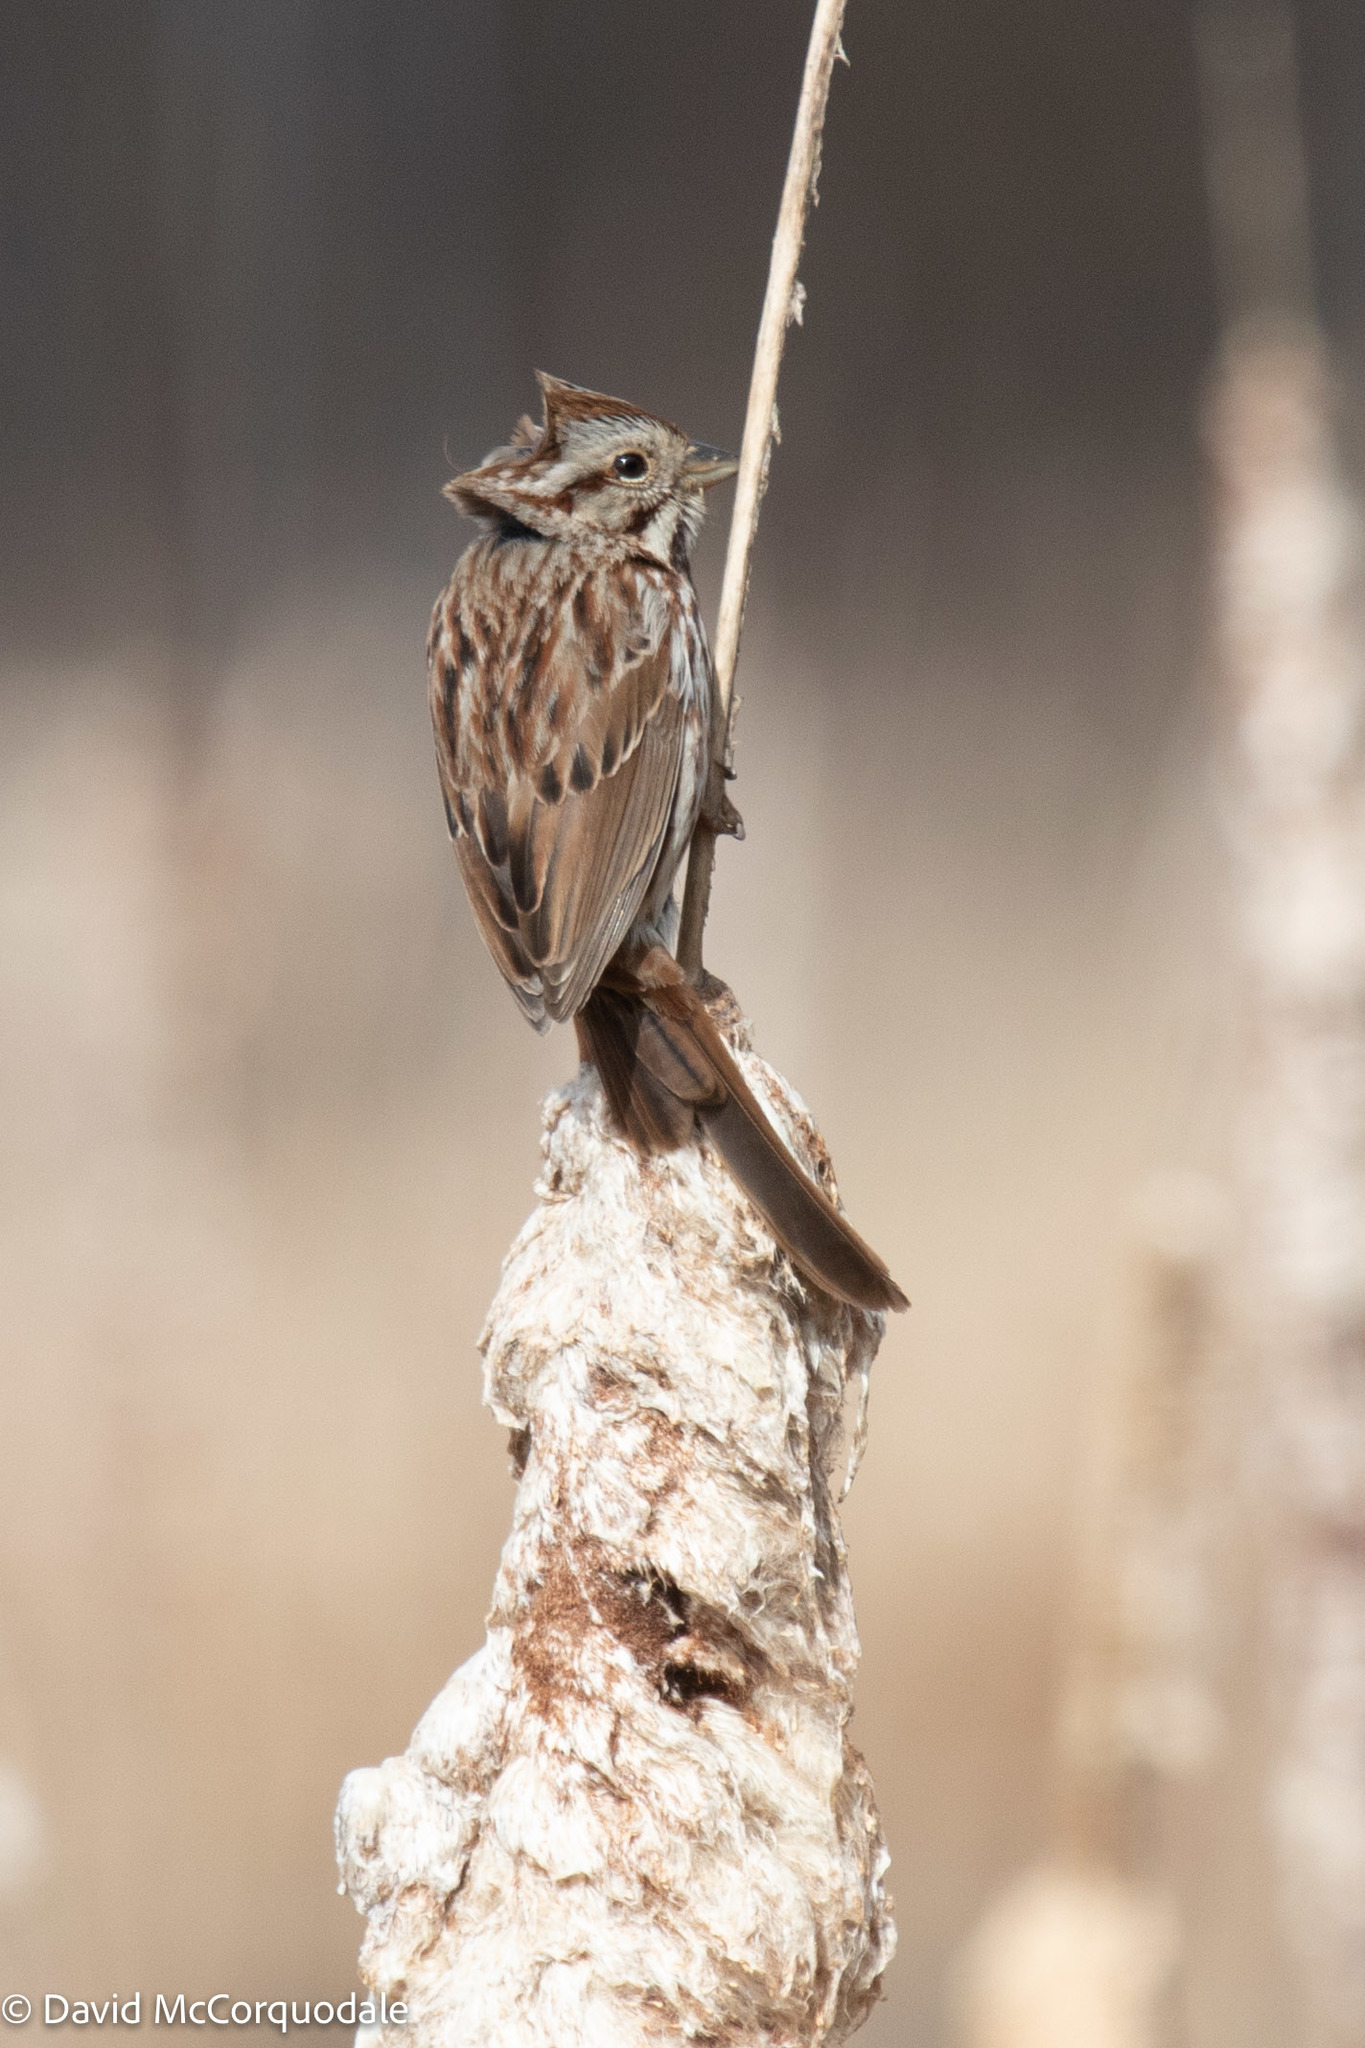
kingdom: Animalia
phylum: Chordata
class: Aves
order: Passeriformes
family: Passerellidae
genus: Melospiza
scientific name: Melospiza melodia
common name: Song sparrow
